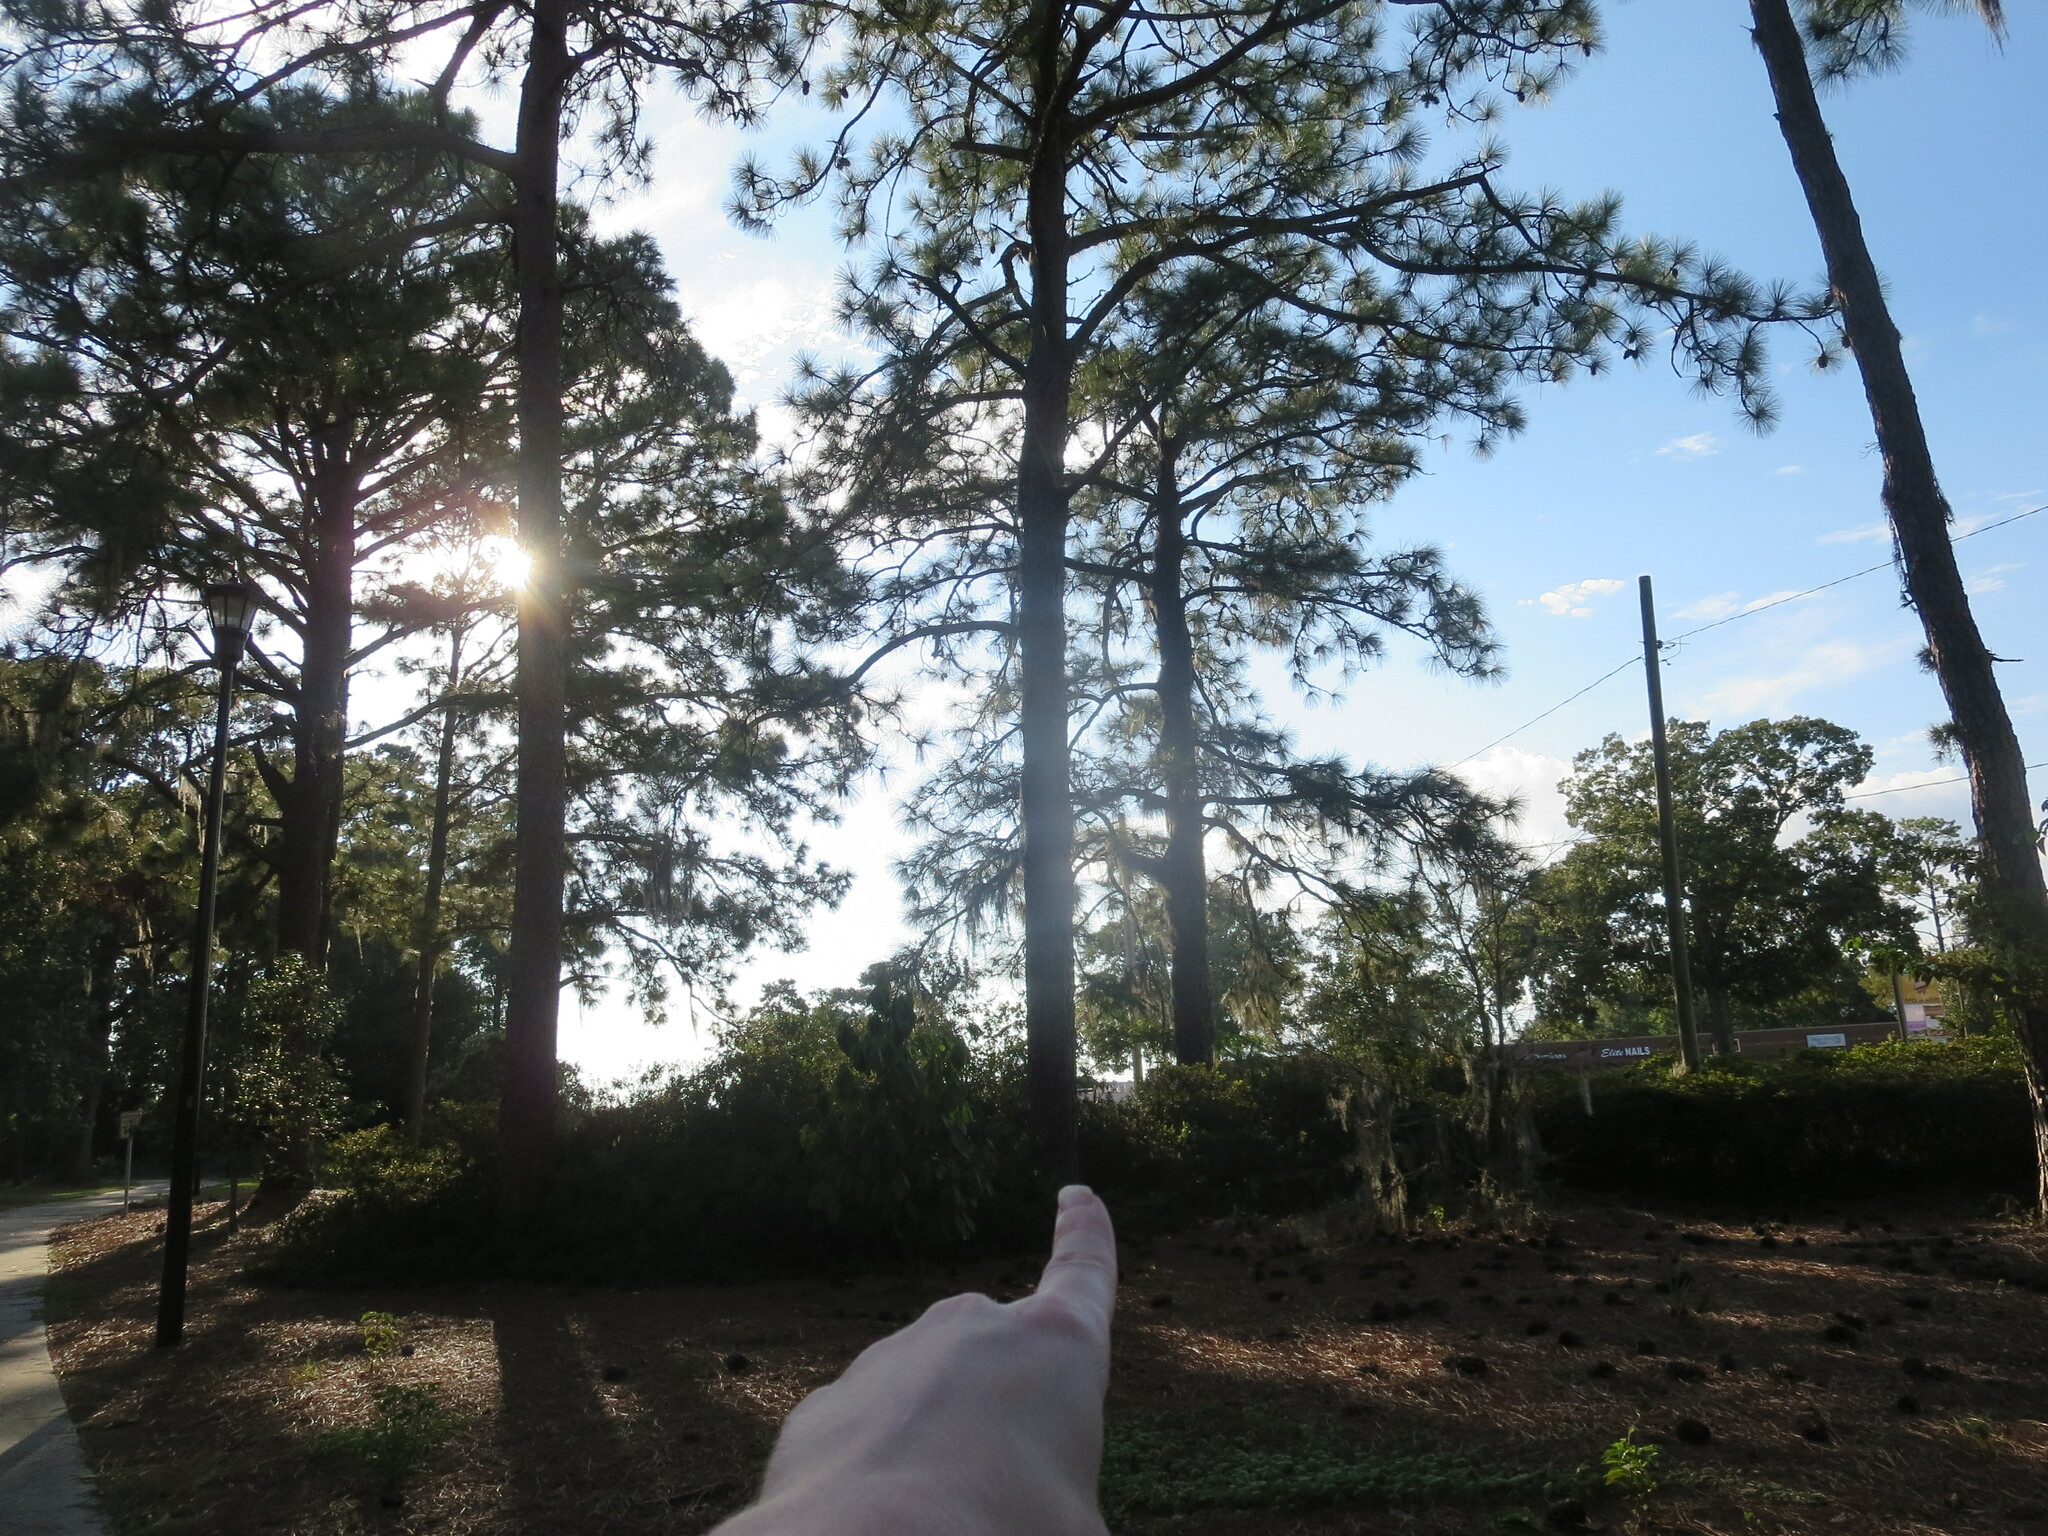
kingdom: Plantae
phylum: Tracheophyta
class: Pinopsida
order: Pinales
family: Pinaceae
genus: Pinus
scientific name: Pinus palustris
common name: Longleaf pine
